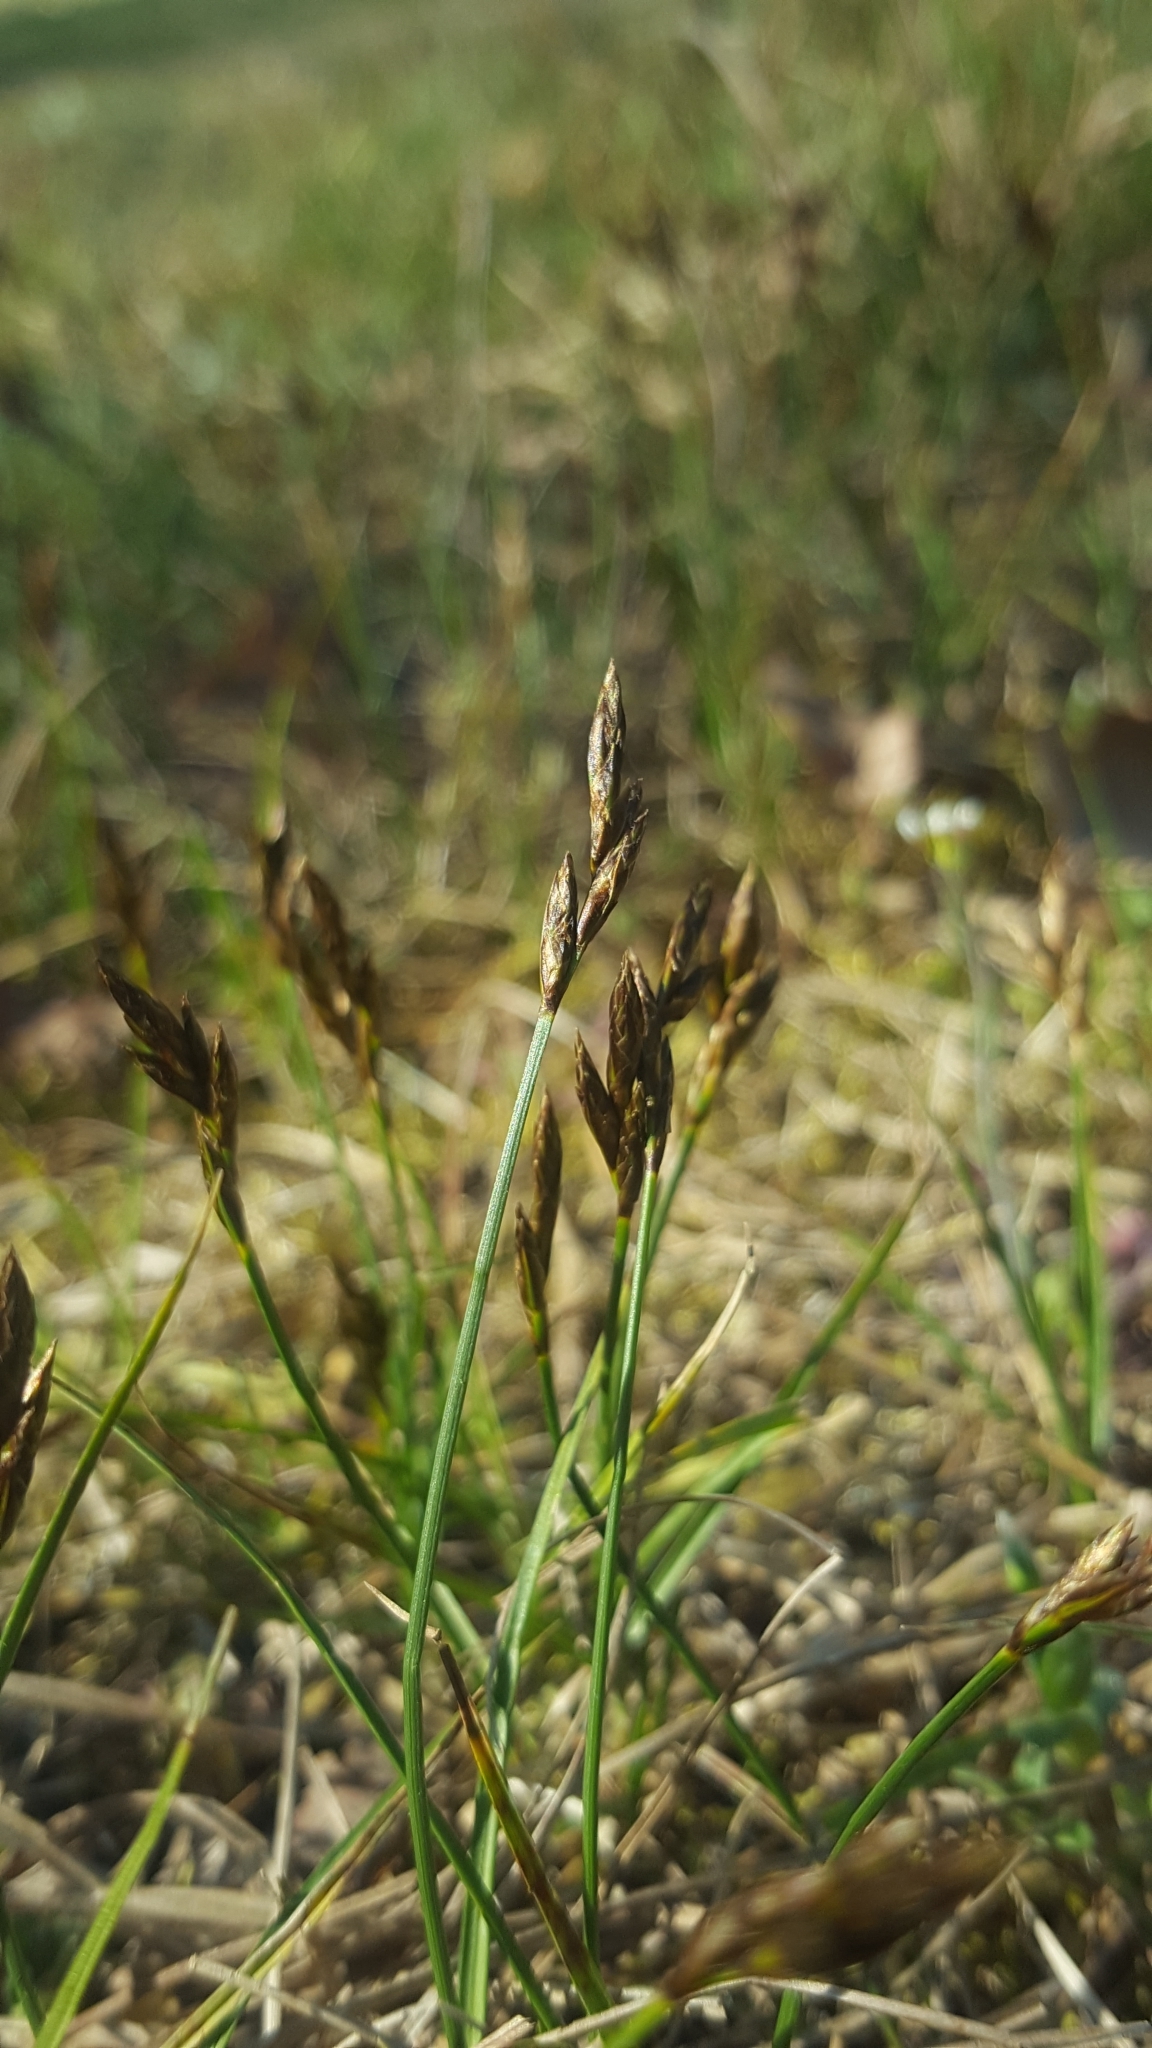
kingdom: Plantae
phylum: Tracheophyta
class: Liliopsida
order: Poales
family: Cyperaceae
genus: Carex
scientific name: Carex praecox
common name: Early sedge
